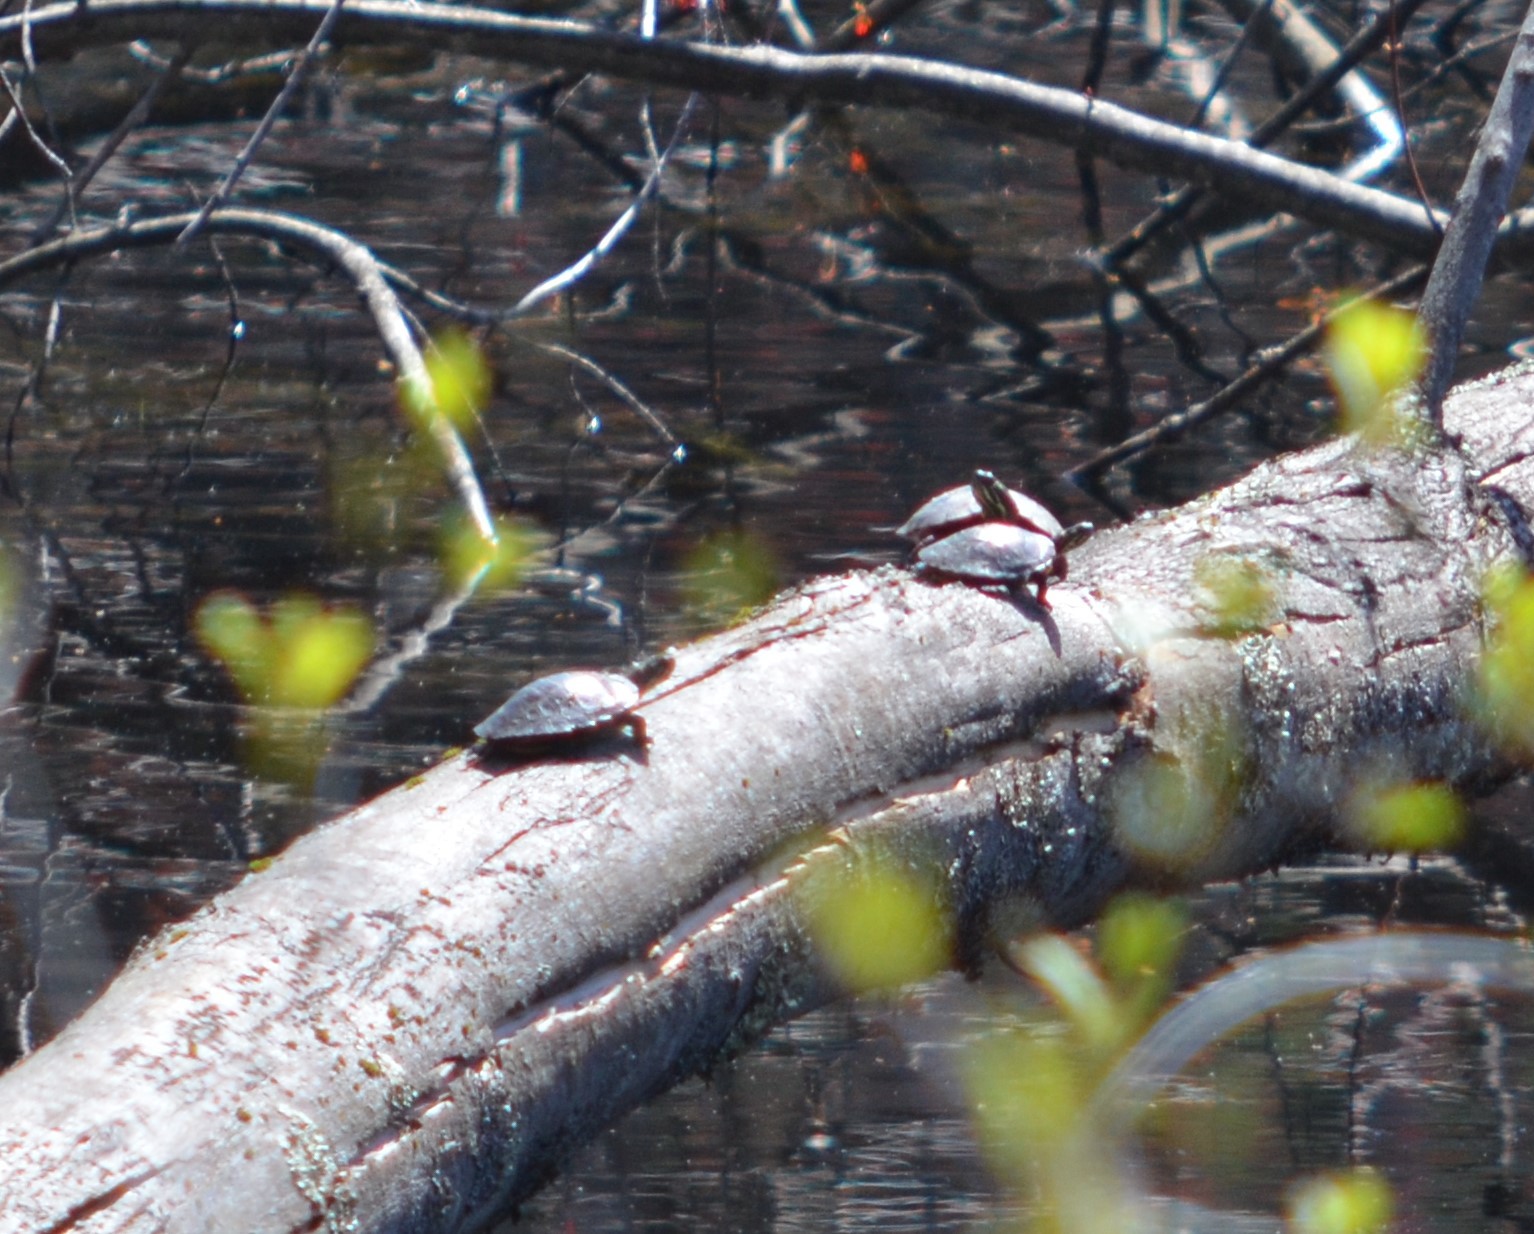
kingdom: Animalia
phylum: Chordata
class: Testudines
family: Emydidae
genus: Chrysemys
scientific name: Chrysemys picta
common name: Painted turtle
